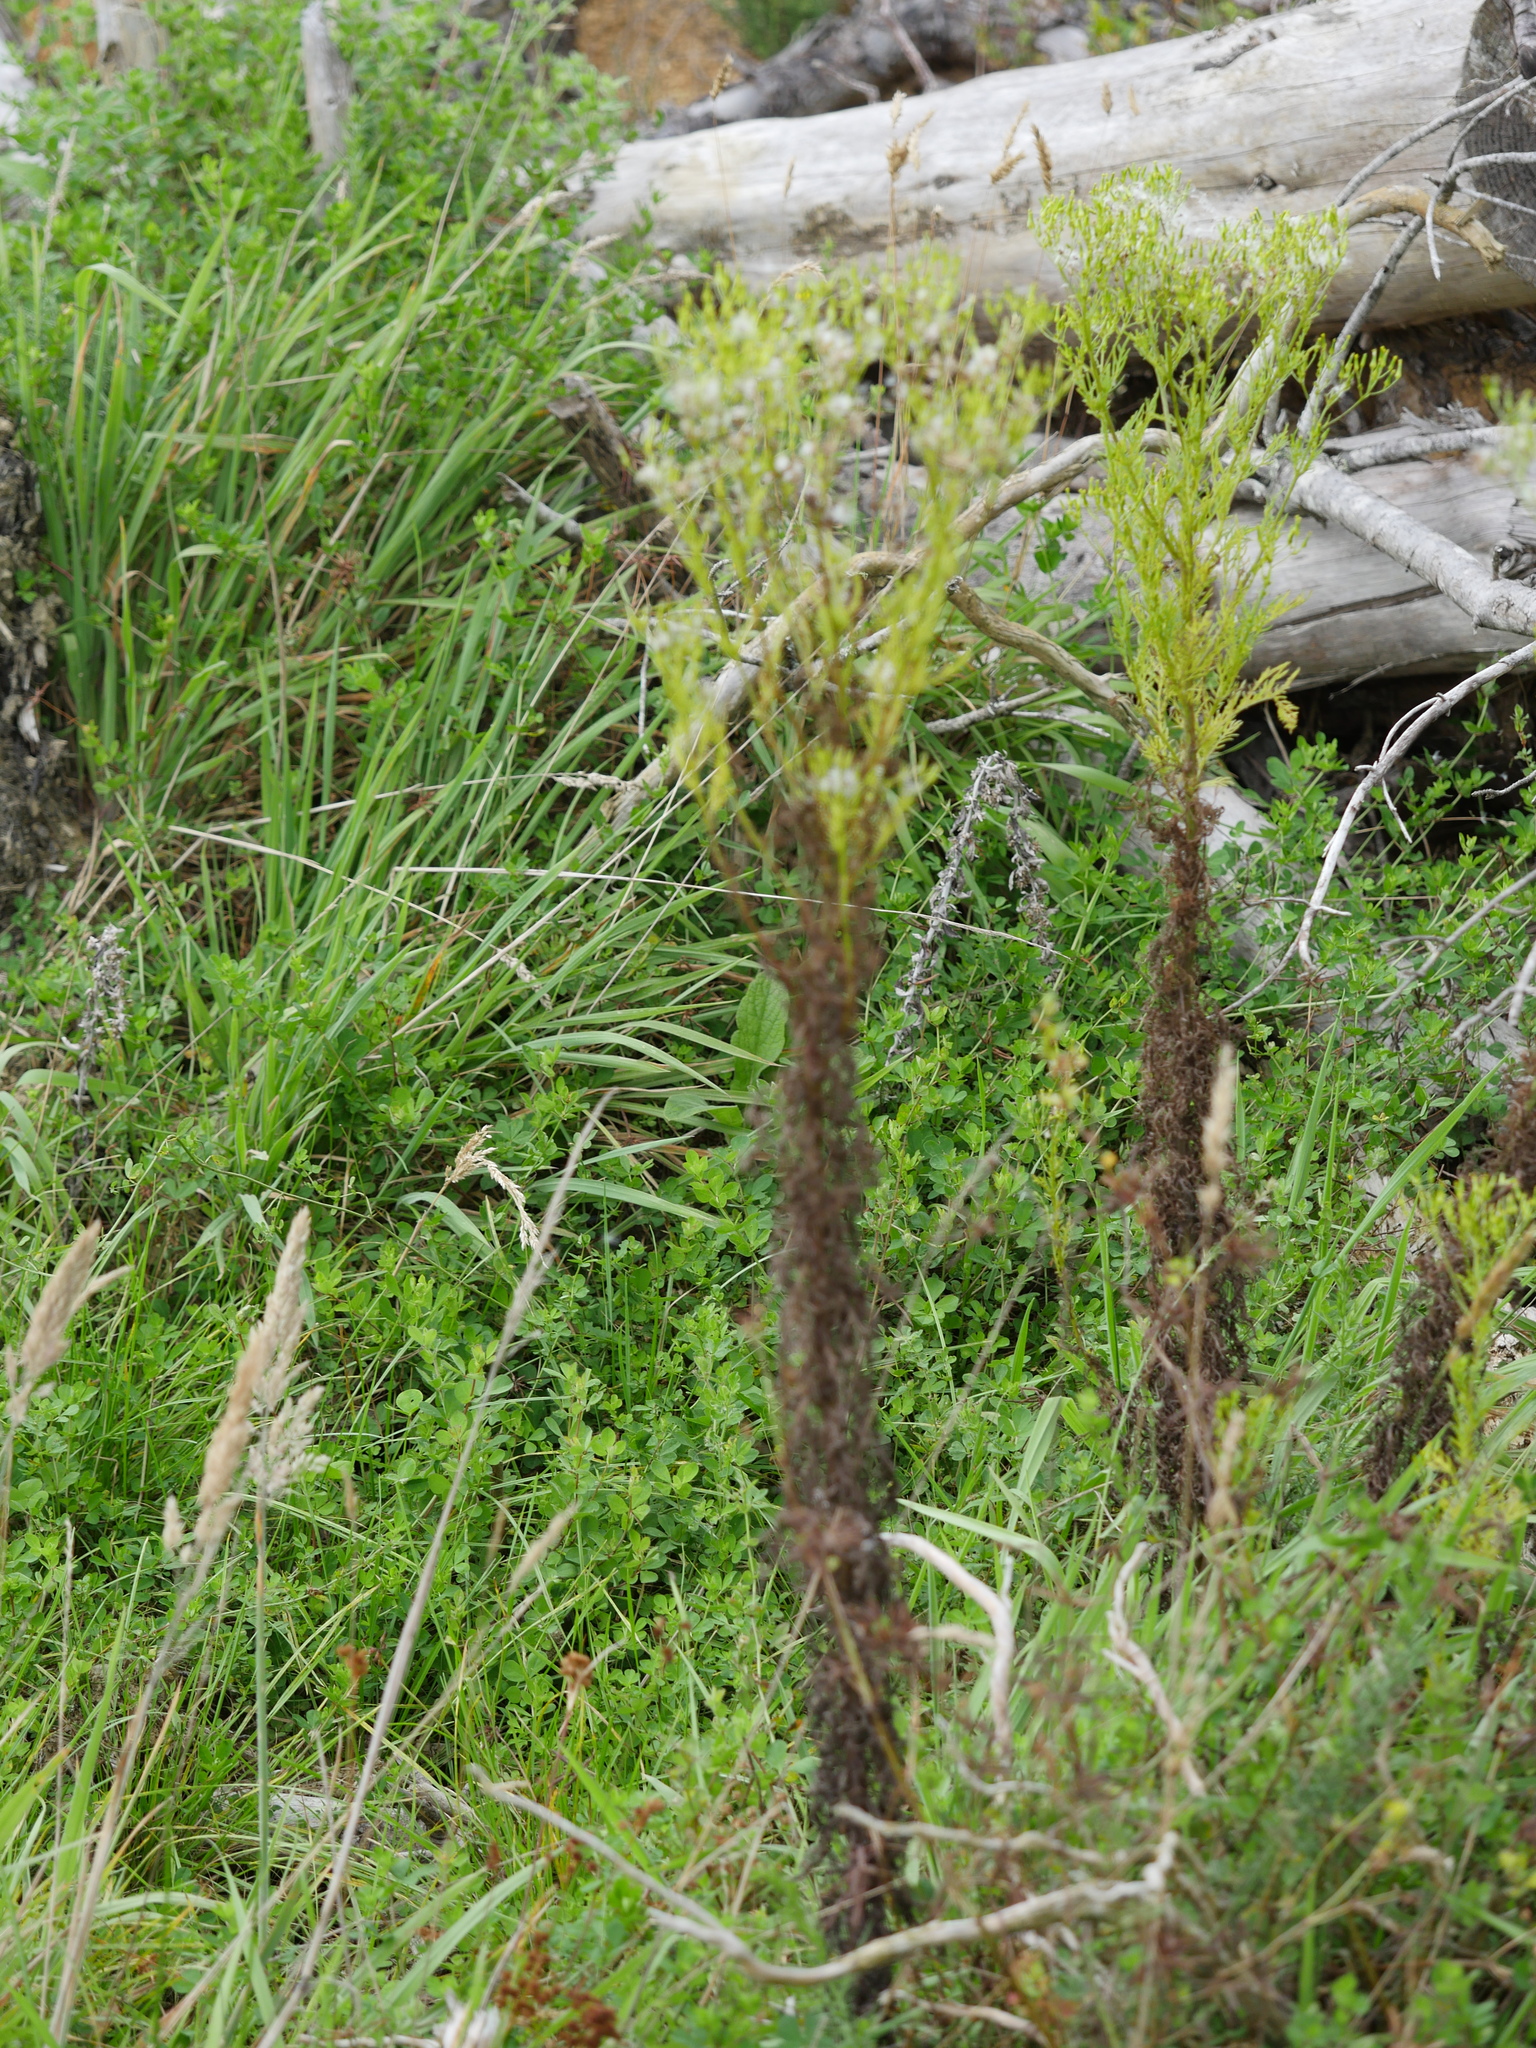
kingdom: Plantae
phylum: Tracheophyta
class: Magnoliopsida
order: Asterales
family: Asteraceae
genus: Senecio
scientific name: Senecio bipinnatisectus
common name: Australian fireweed
